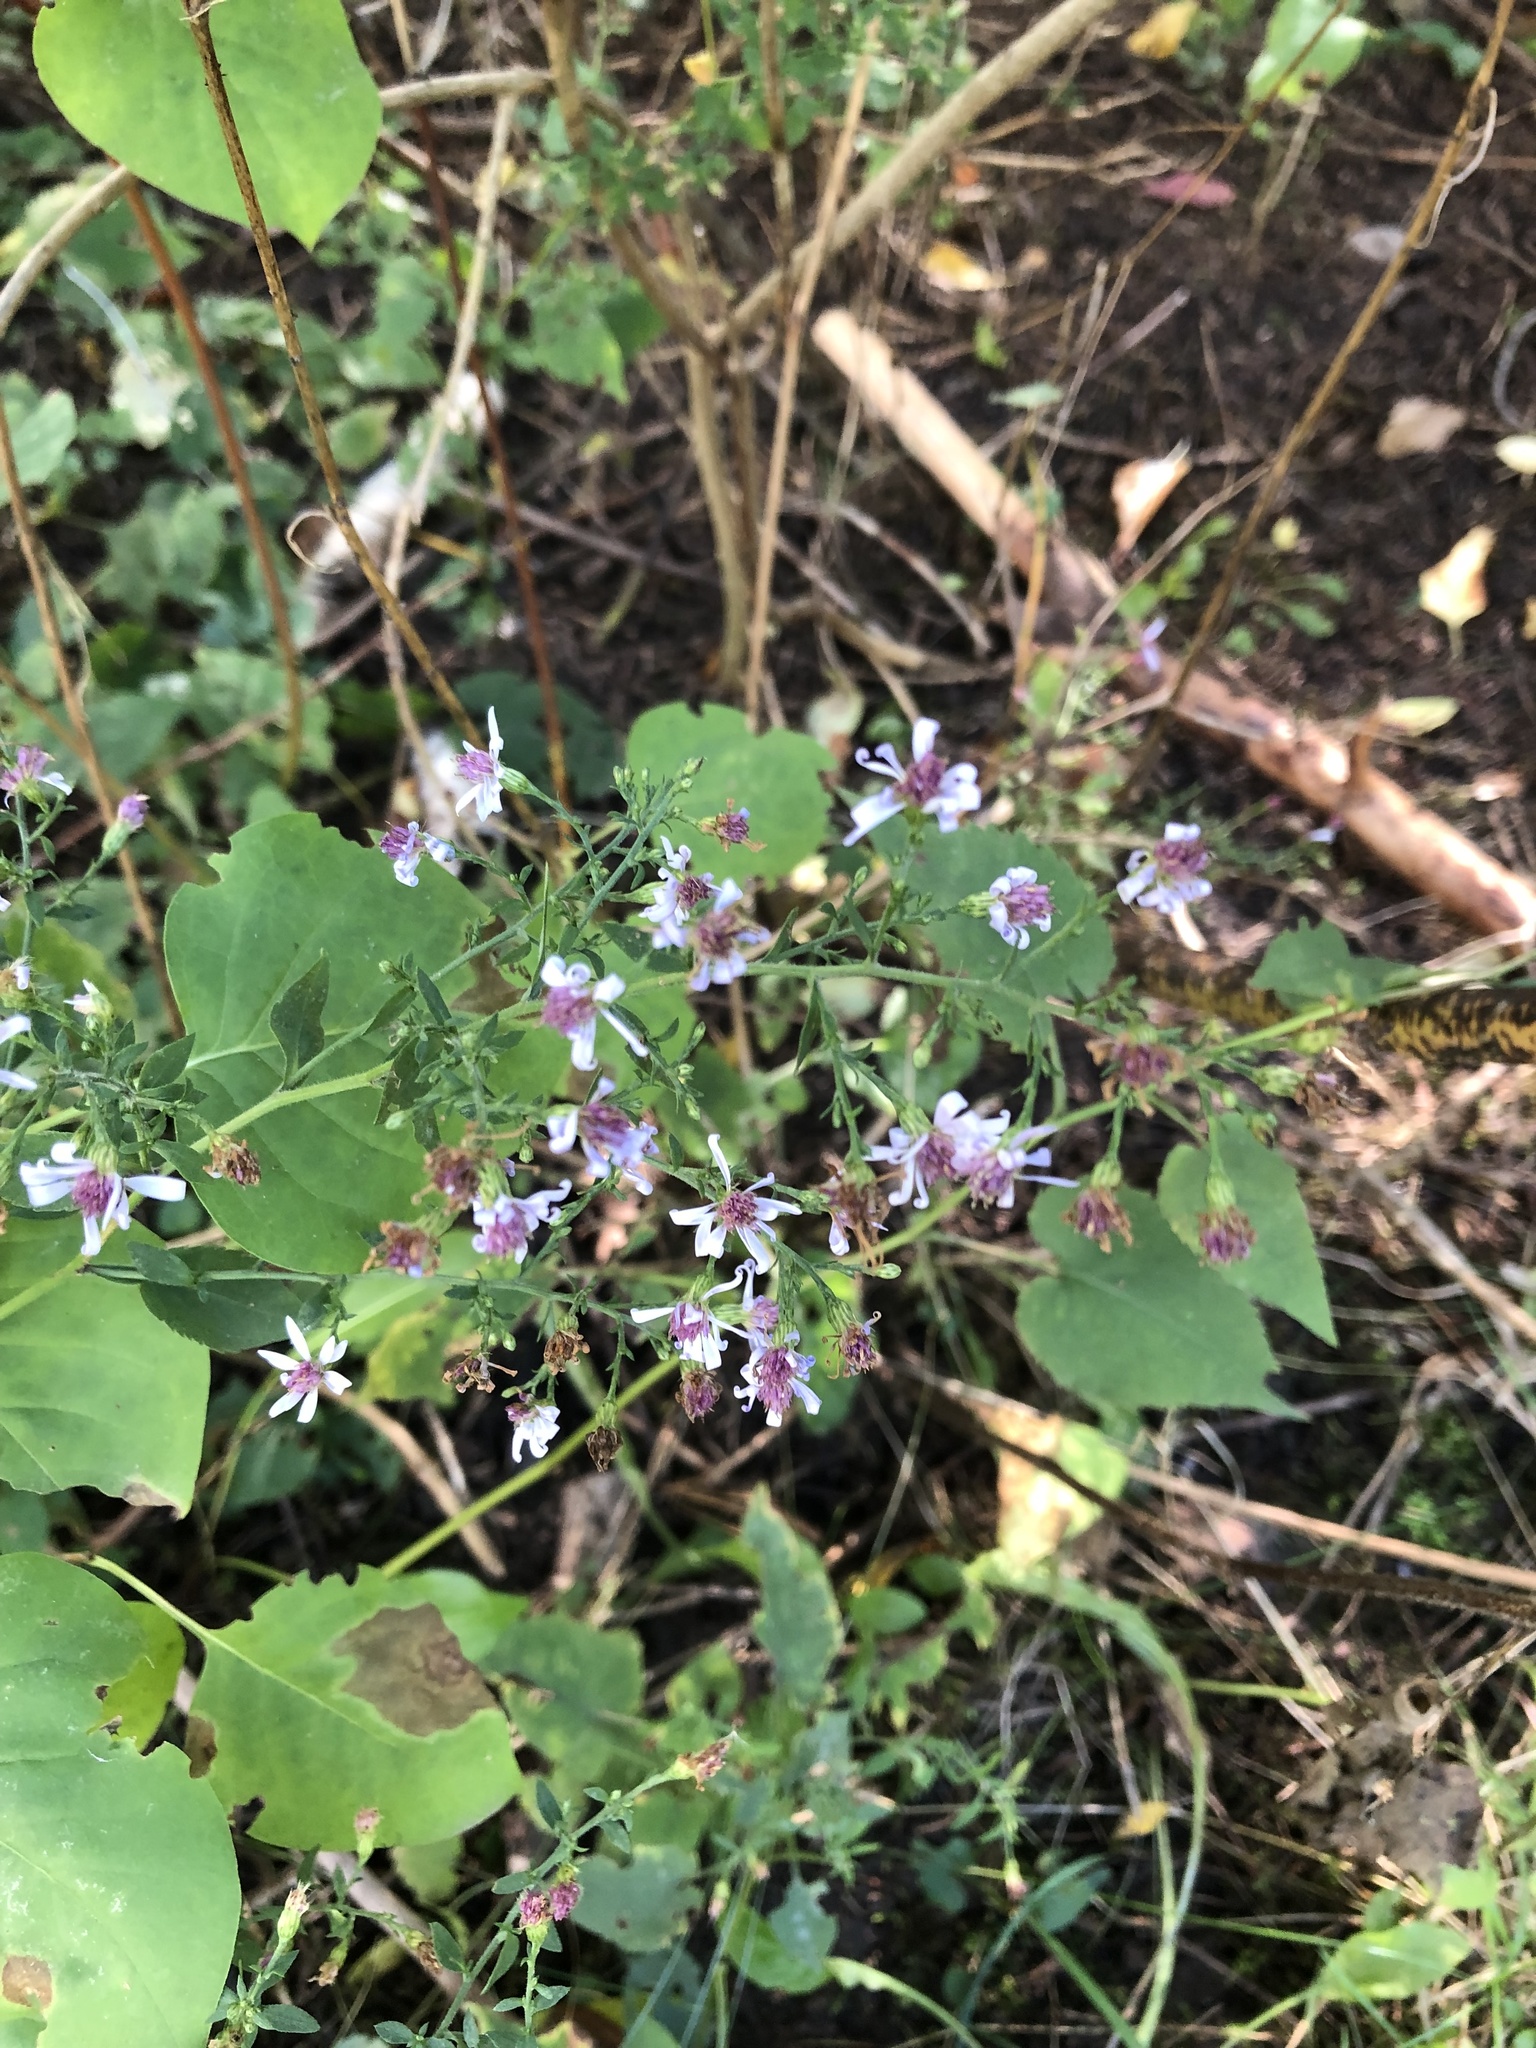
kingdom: Plantae
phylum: Tracheophyta
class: Magnoliopsida
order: Asterales
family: Asteraceae
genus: Symphyotrichum
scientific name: Symphyotrichum cordifolium
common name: Beeweed
